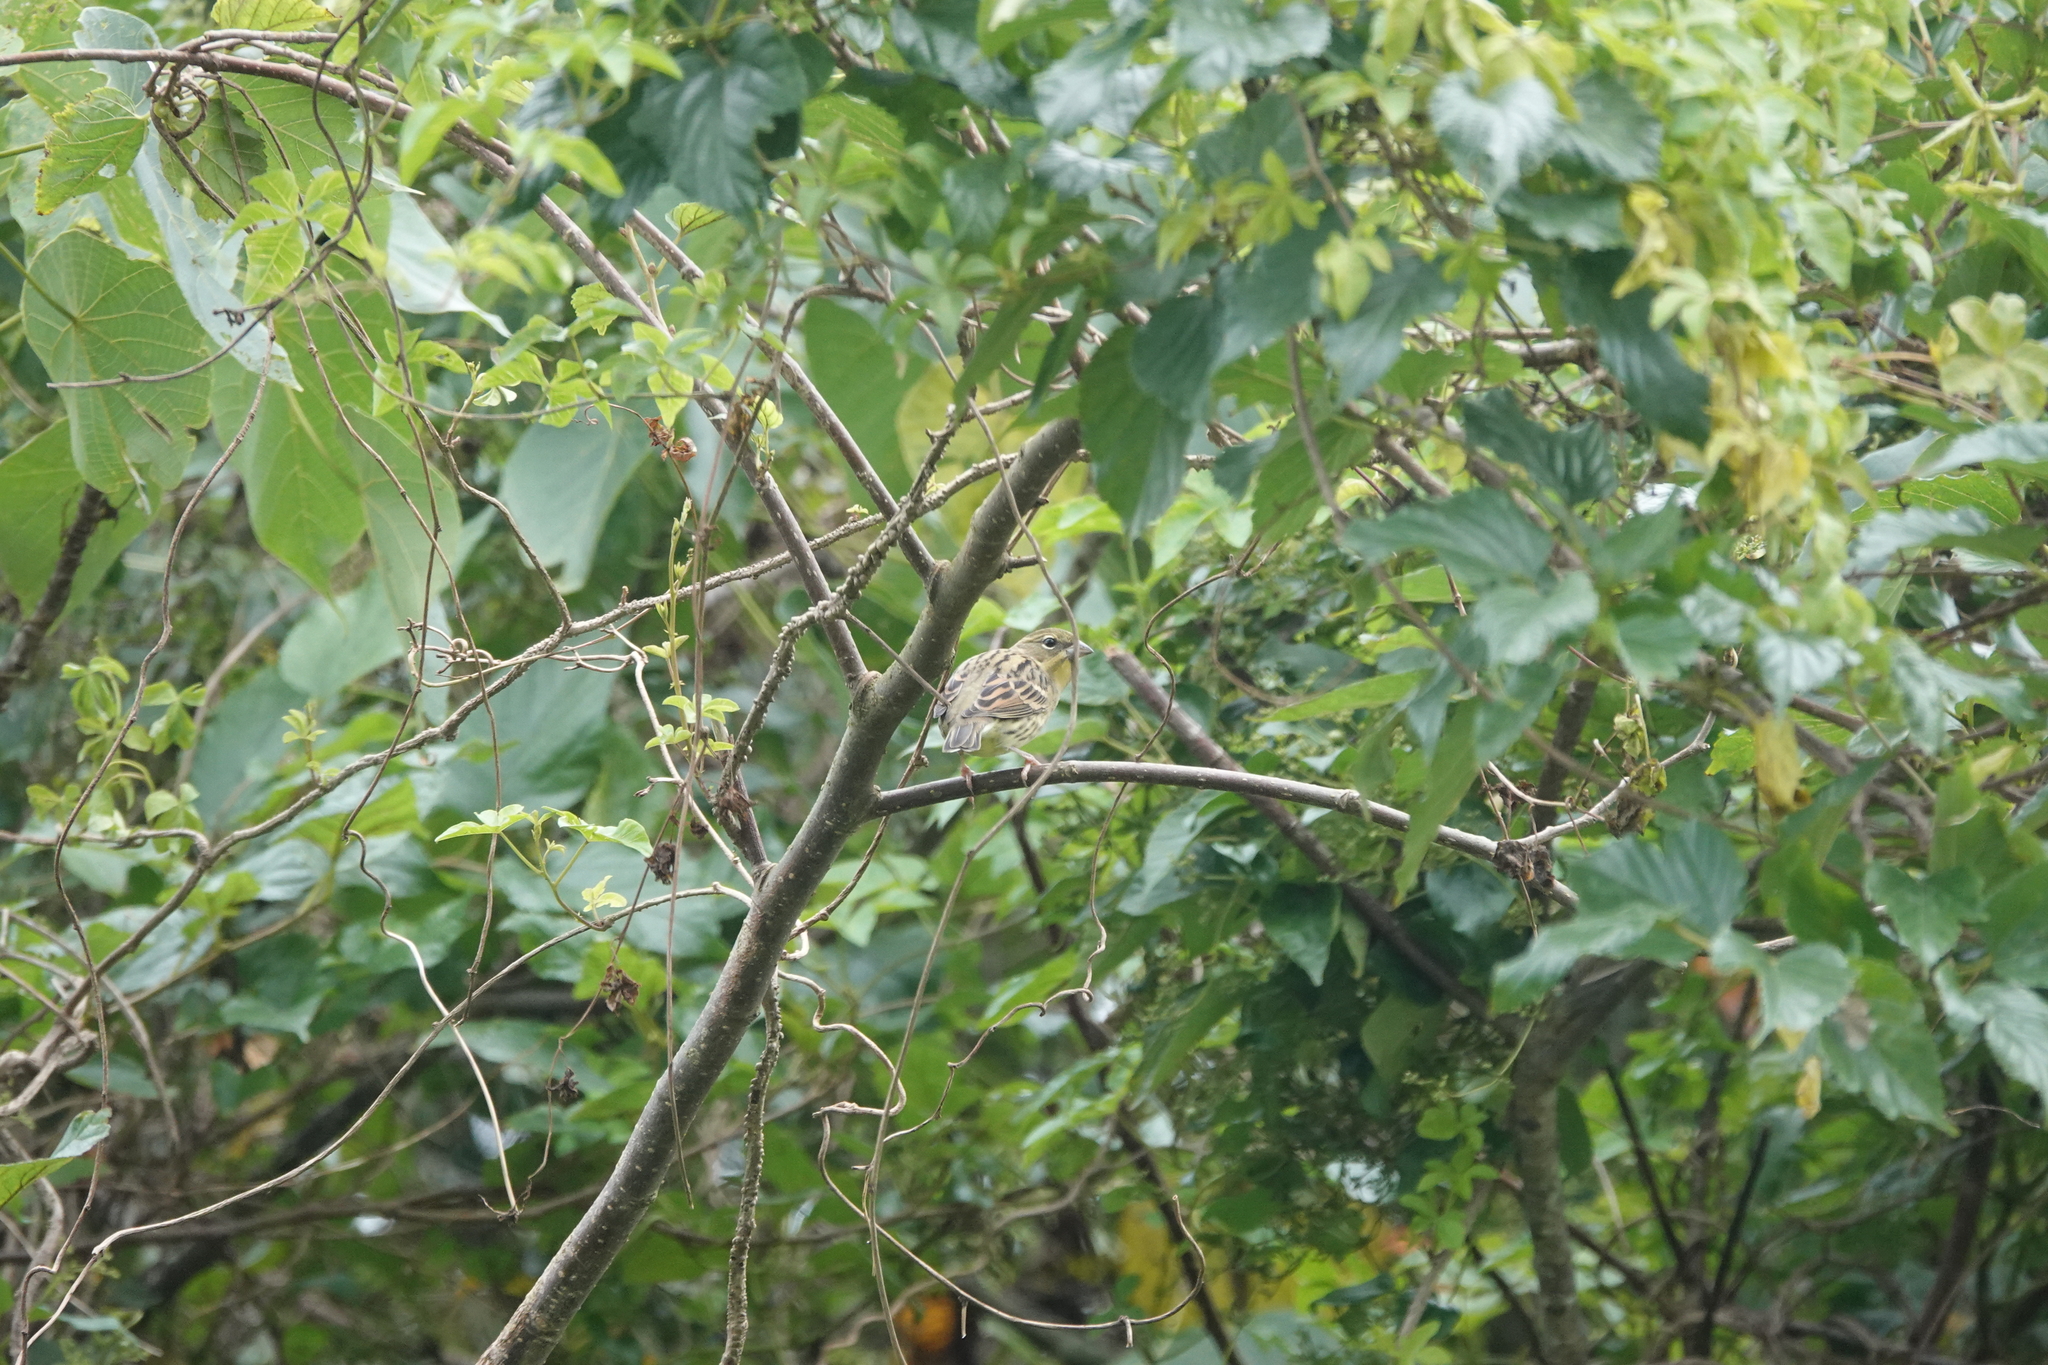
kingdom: Animalia
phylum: Chordata
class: Aves
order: Passeriformes
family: Emberizidae
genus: Emberiza
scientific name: Emberiza sulphurata
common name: Yellow bunting
